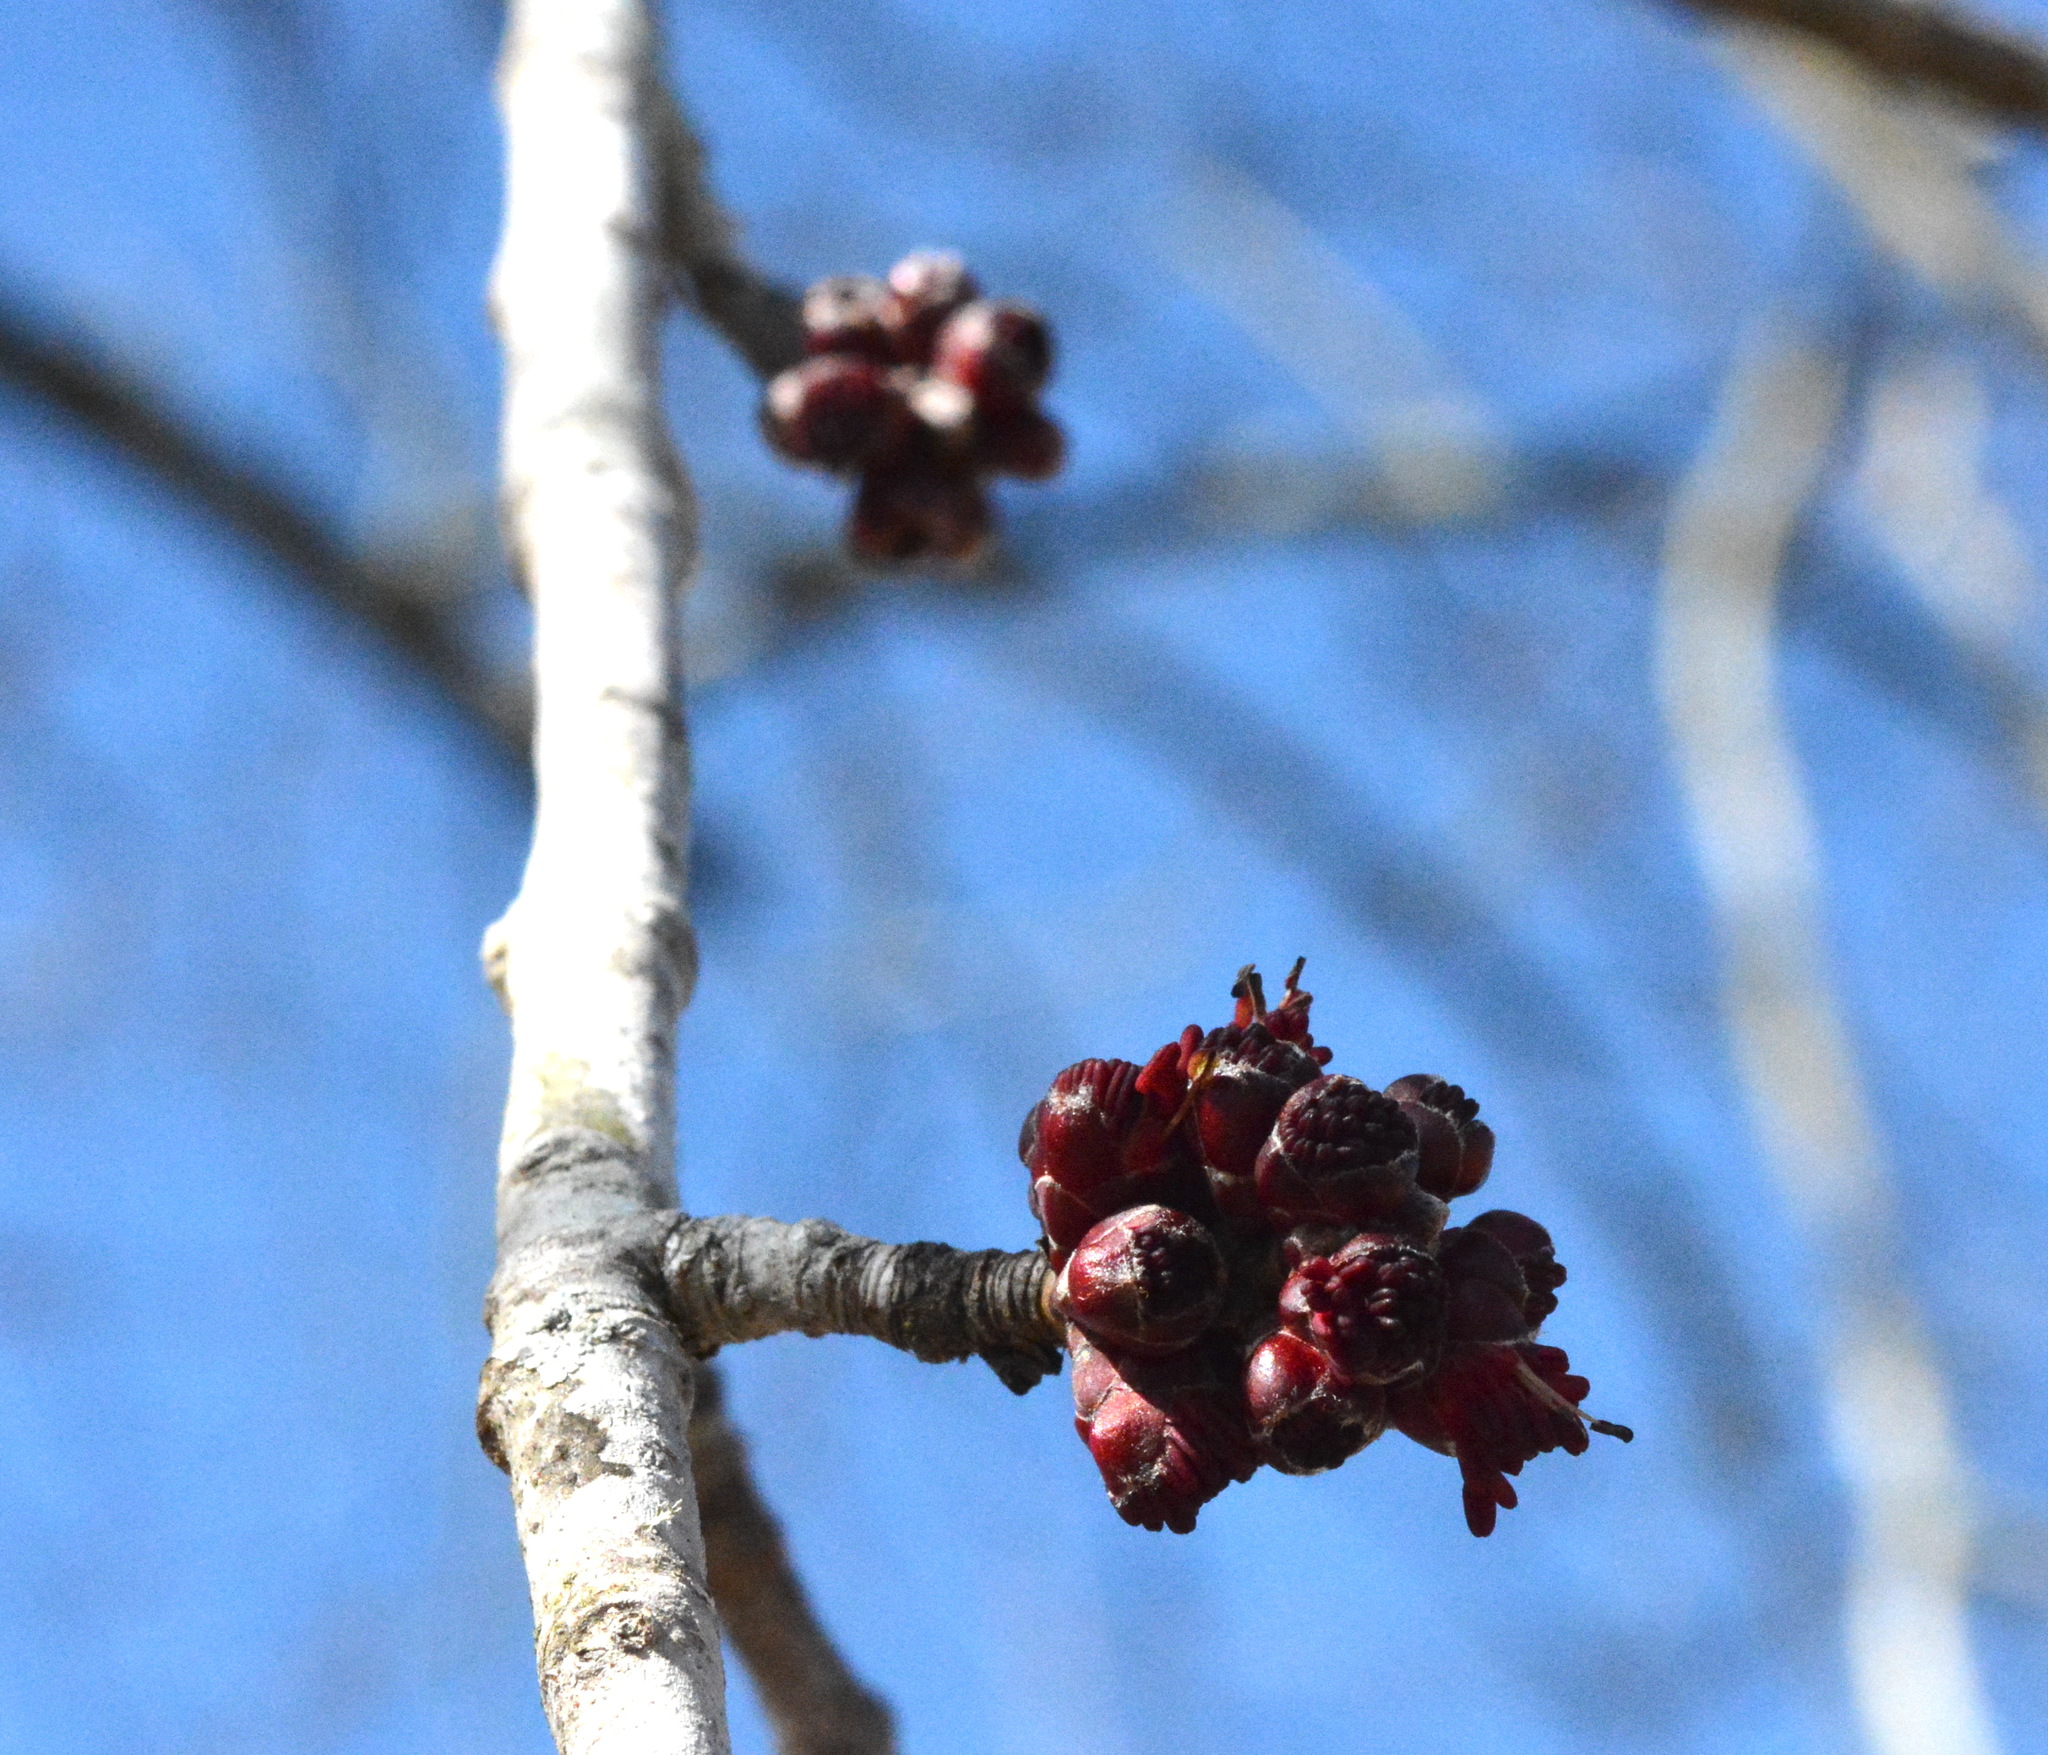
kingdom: Plantae
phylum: Tracheophyta
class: Magnoliopsida
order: Sapindales
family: Sapindaceae
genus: Acer
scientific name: Acer rubrum
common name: Red maple
